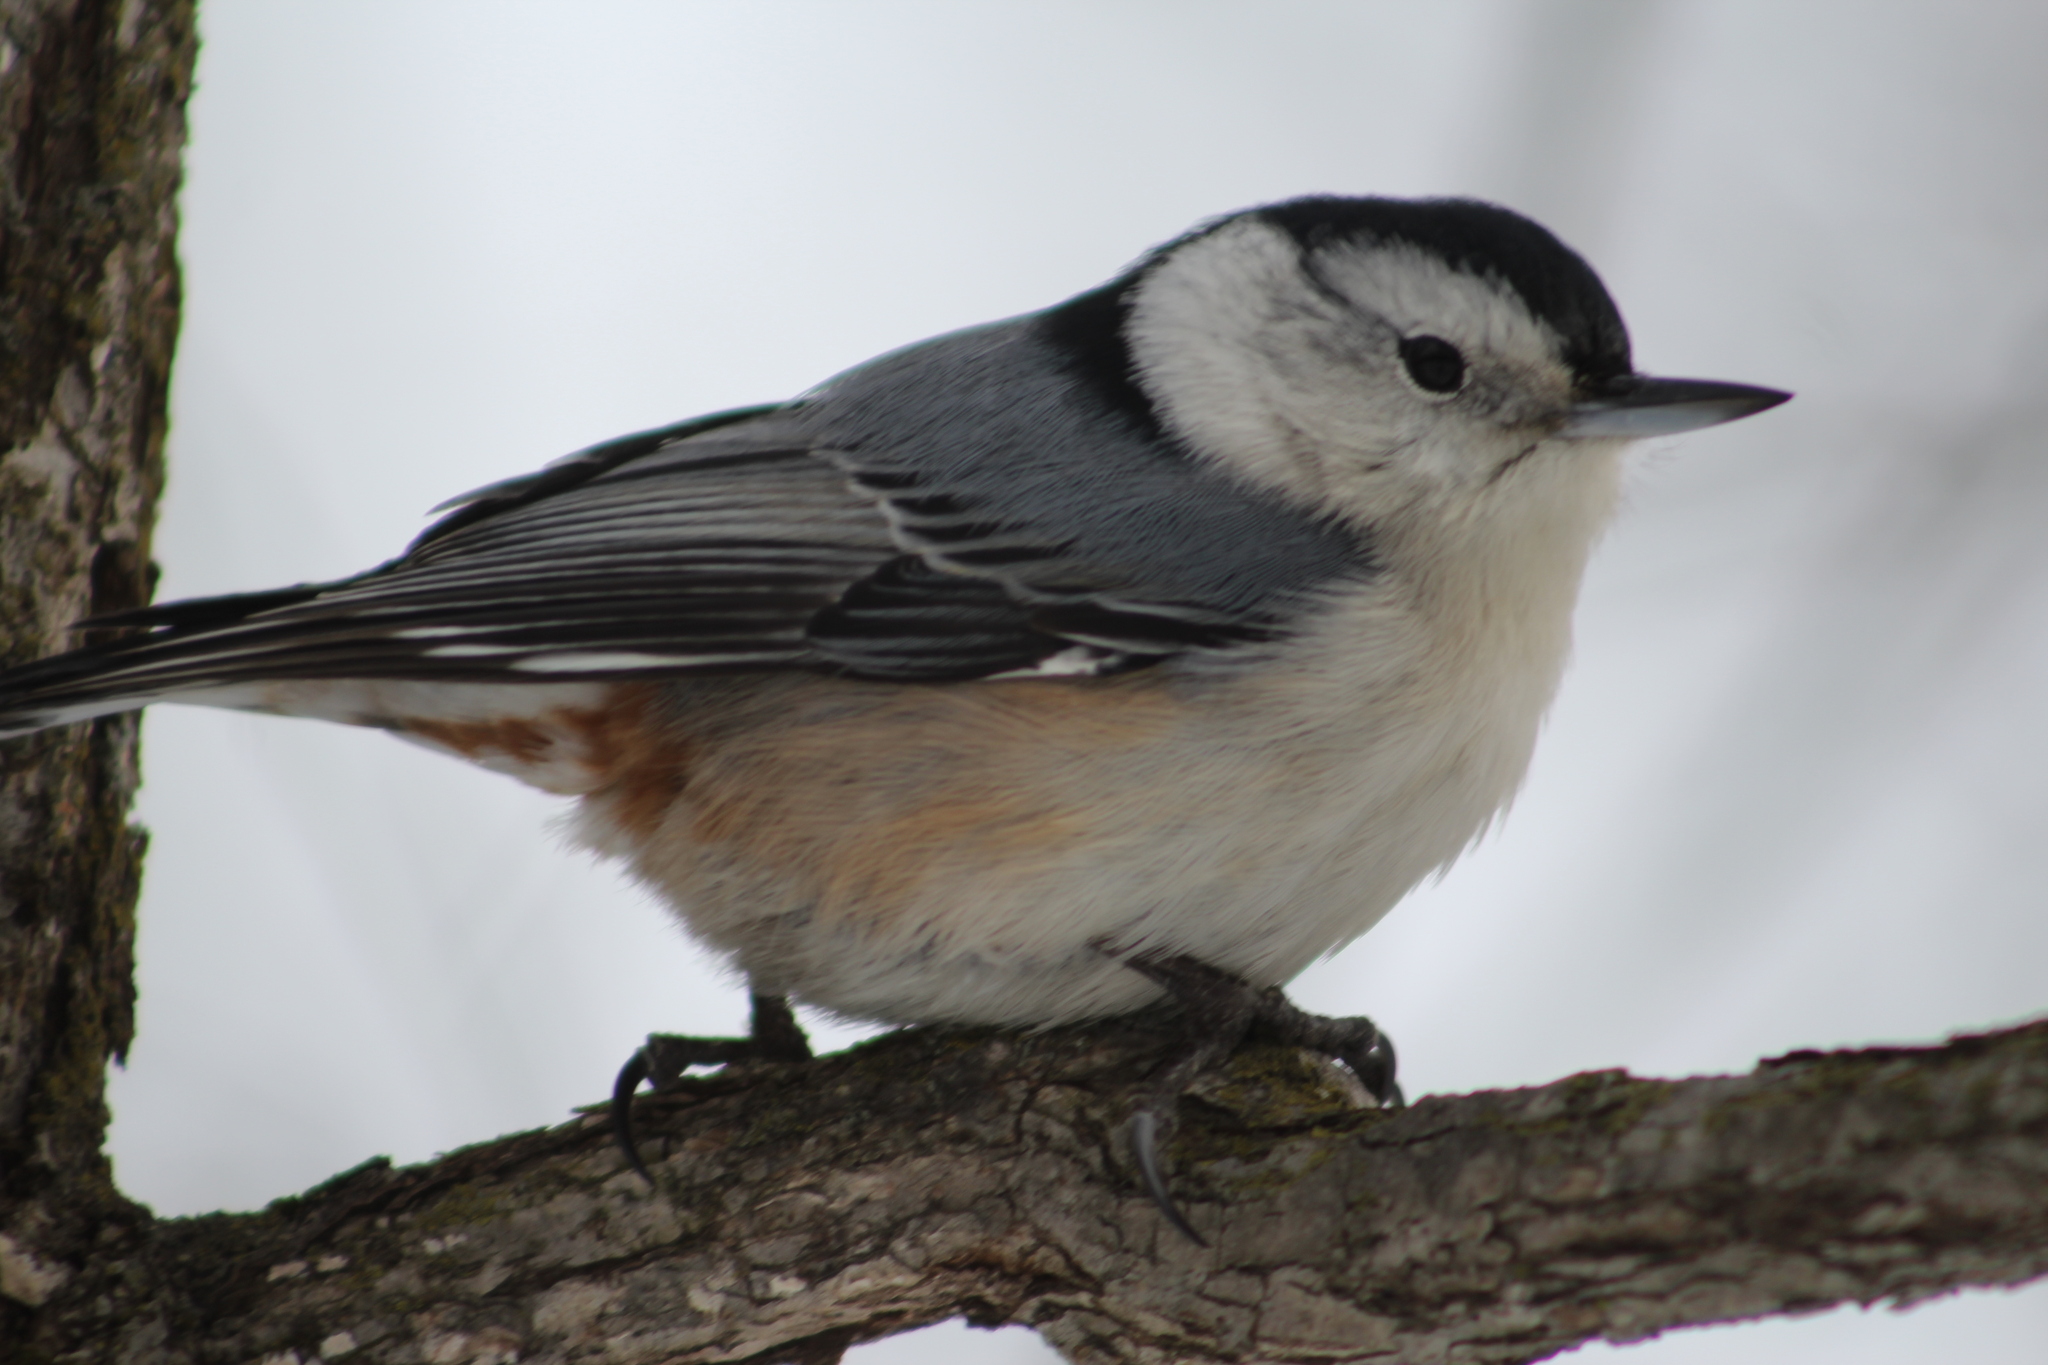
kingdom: Animalia
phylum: Chordata
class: Aves
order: Passeriformes
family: Sittidae
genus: Sitta
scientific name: Sitta carolinensis
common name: White-breasted nuthatch
